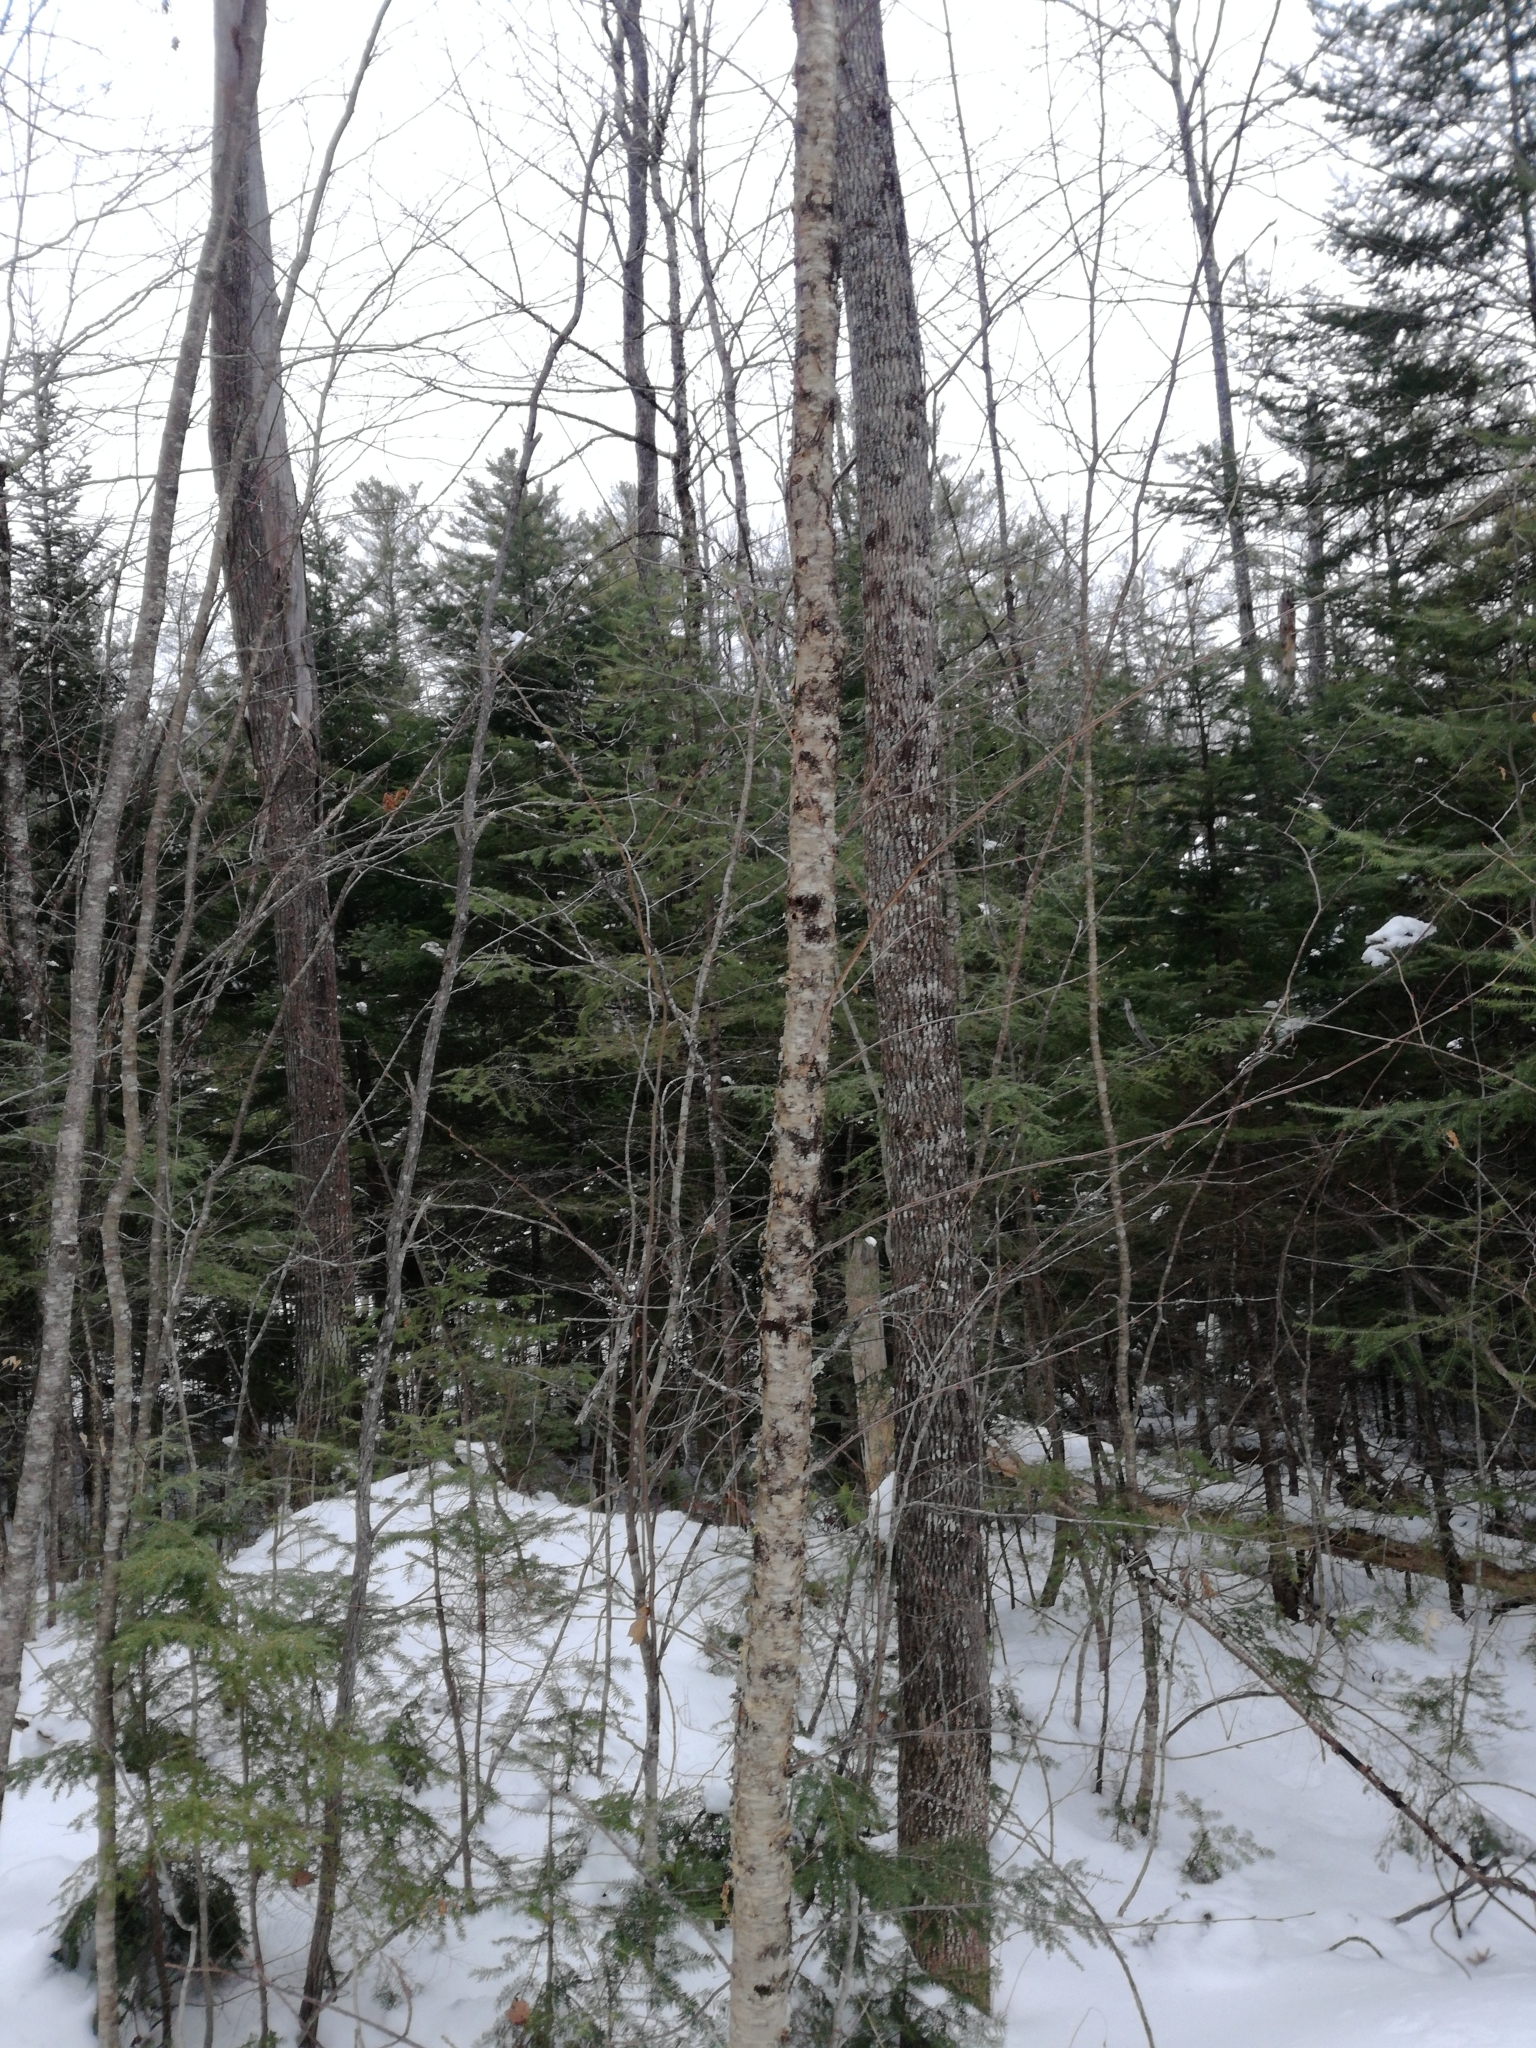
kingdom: Plantae
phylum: Tracheophyta
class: Magnoliopsida
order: Fagales
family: Betulaceae
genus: Betula
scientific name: Betula alleghaniensis
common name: Yellow birch
